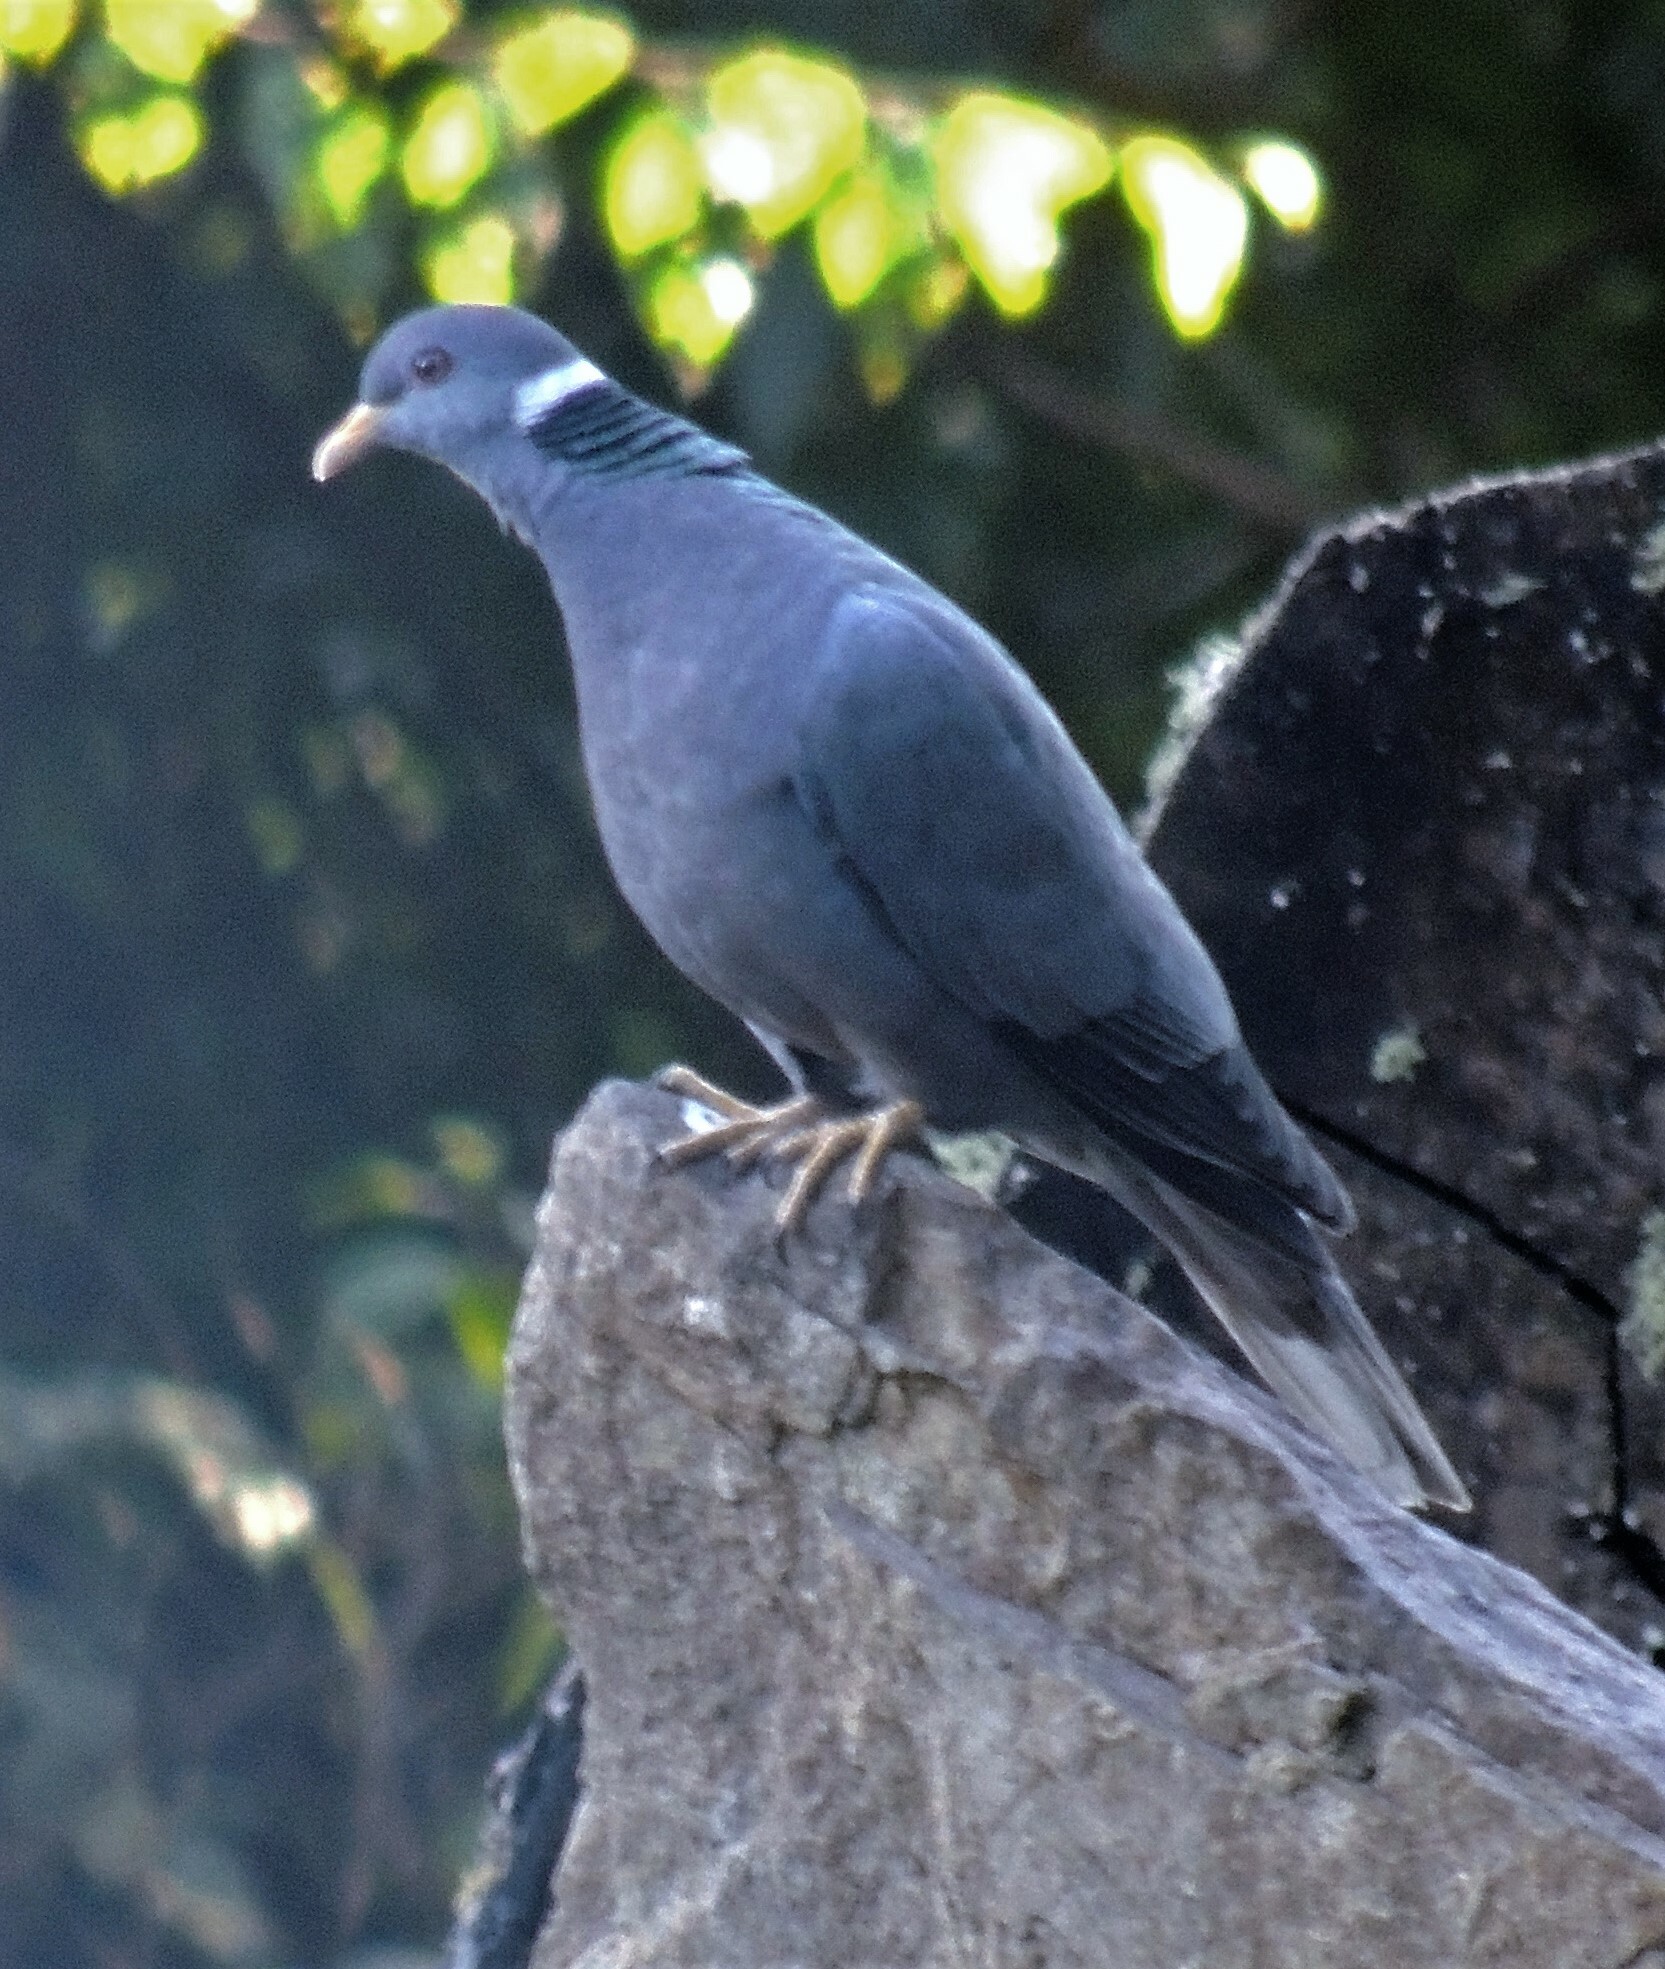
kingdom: Animalia
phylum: Chordata
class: Aves
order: Columbiformes
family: Columbidae
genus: Patagioenas
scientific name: Patagioenas fasciata
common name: Band-tailed pigeon
